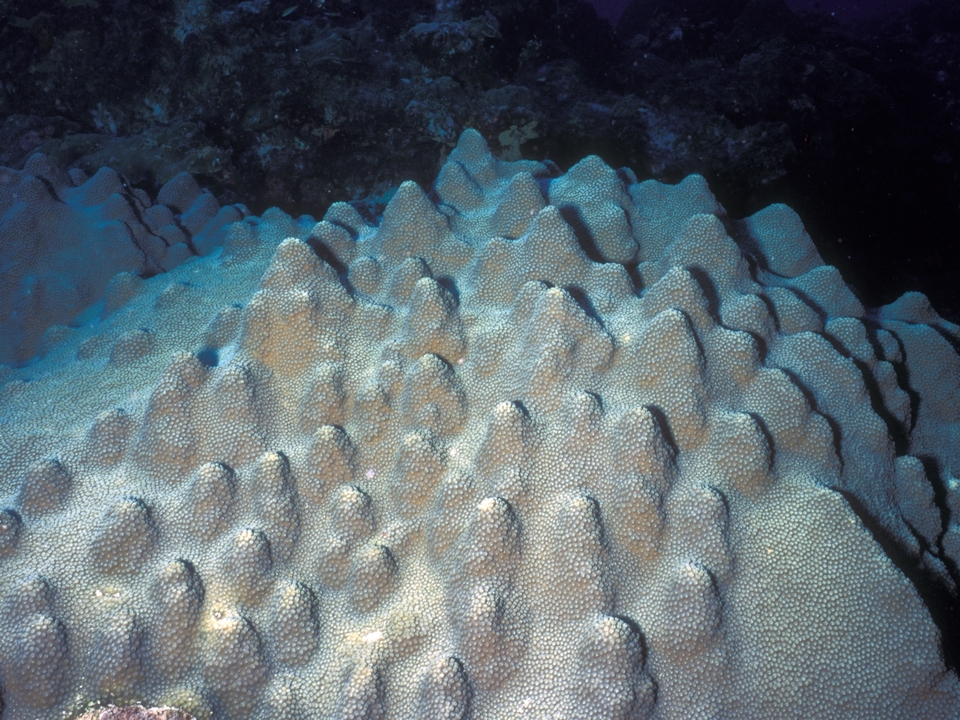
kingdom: Animalia
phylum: Cnidaria
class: Anthozoa
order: Scleractinia
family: Merulinidae
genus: Orbicella
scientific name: Orbicella faveolata
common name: Mountainous star coral
